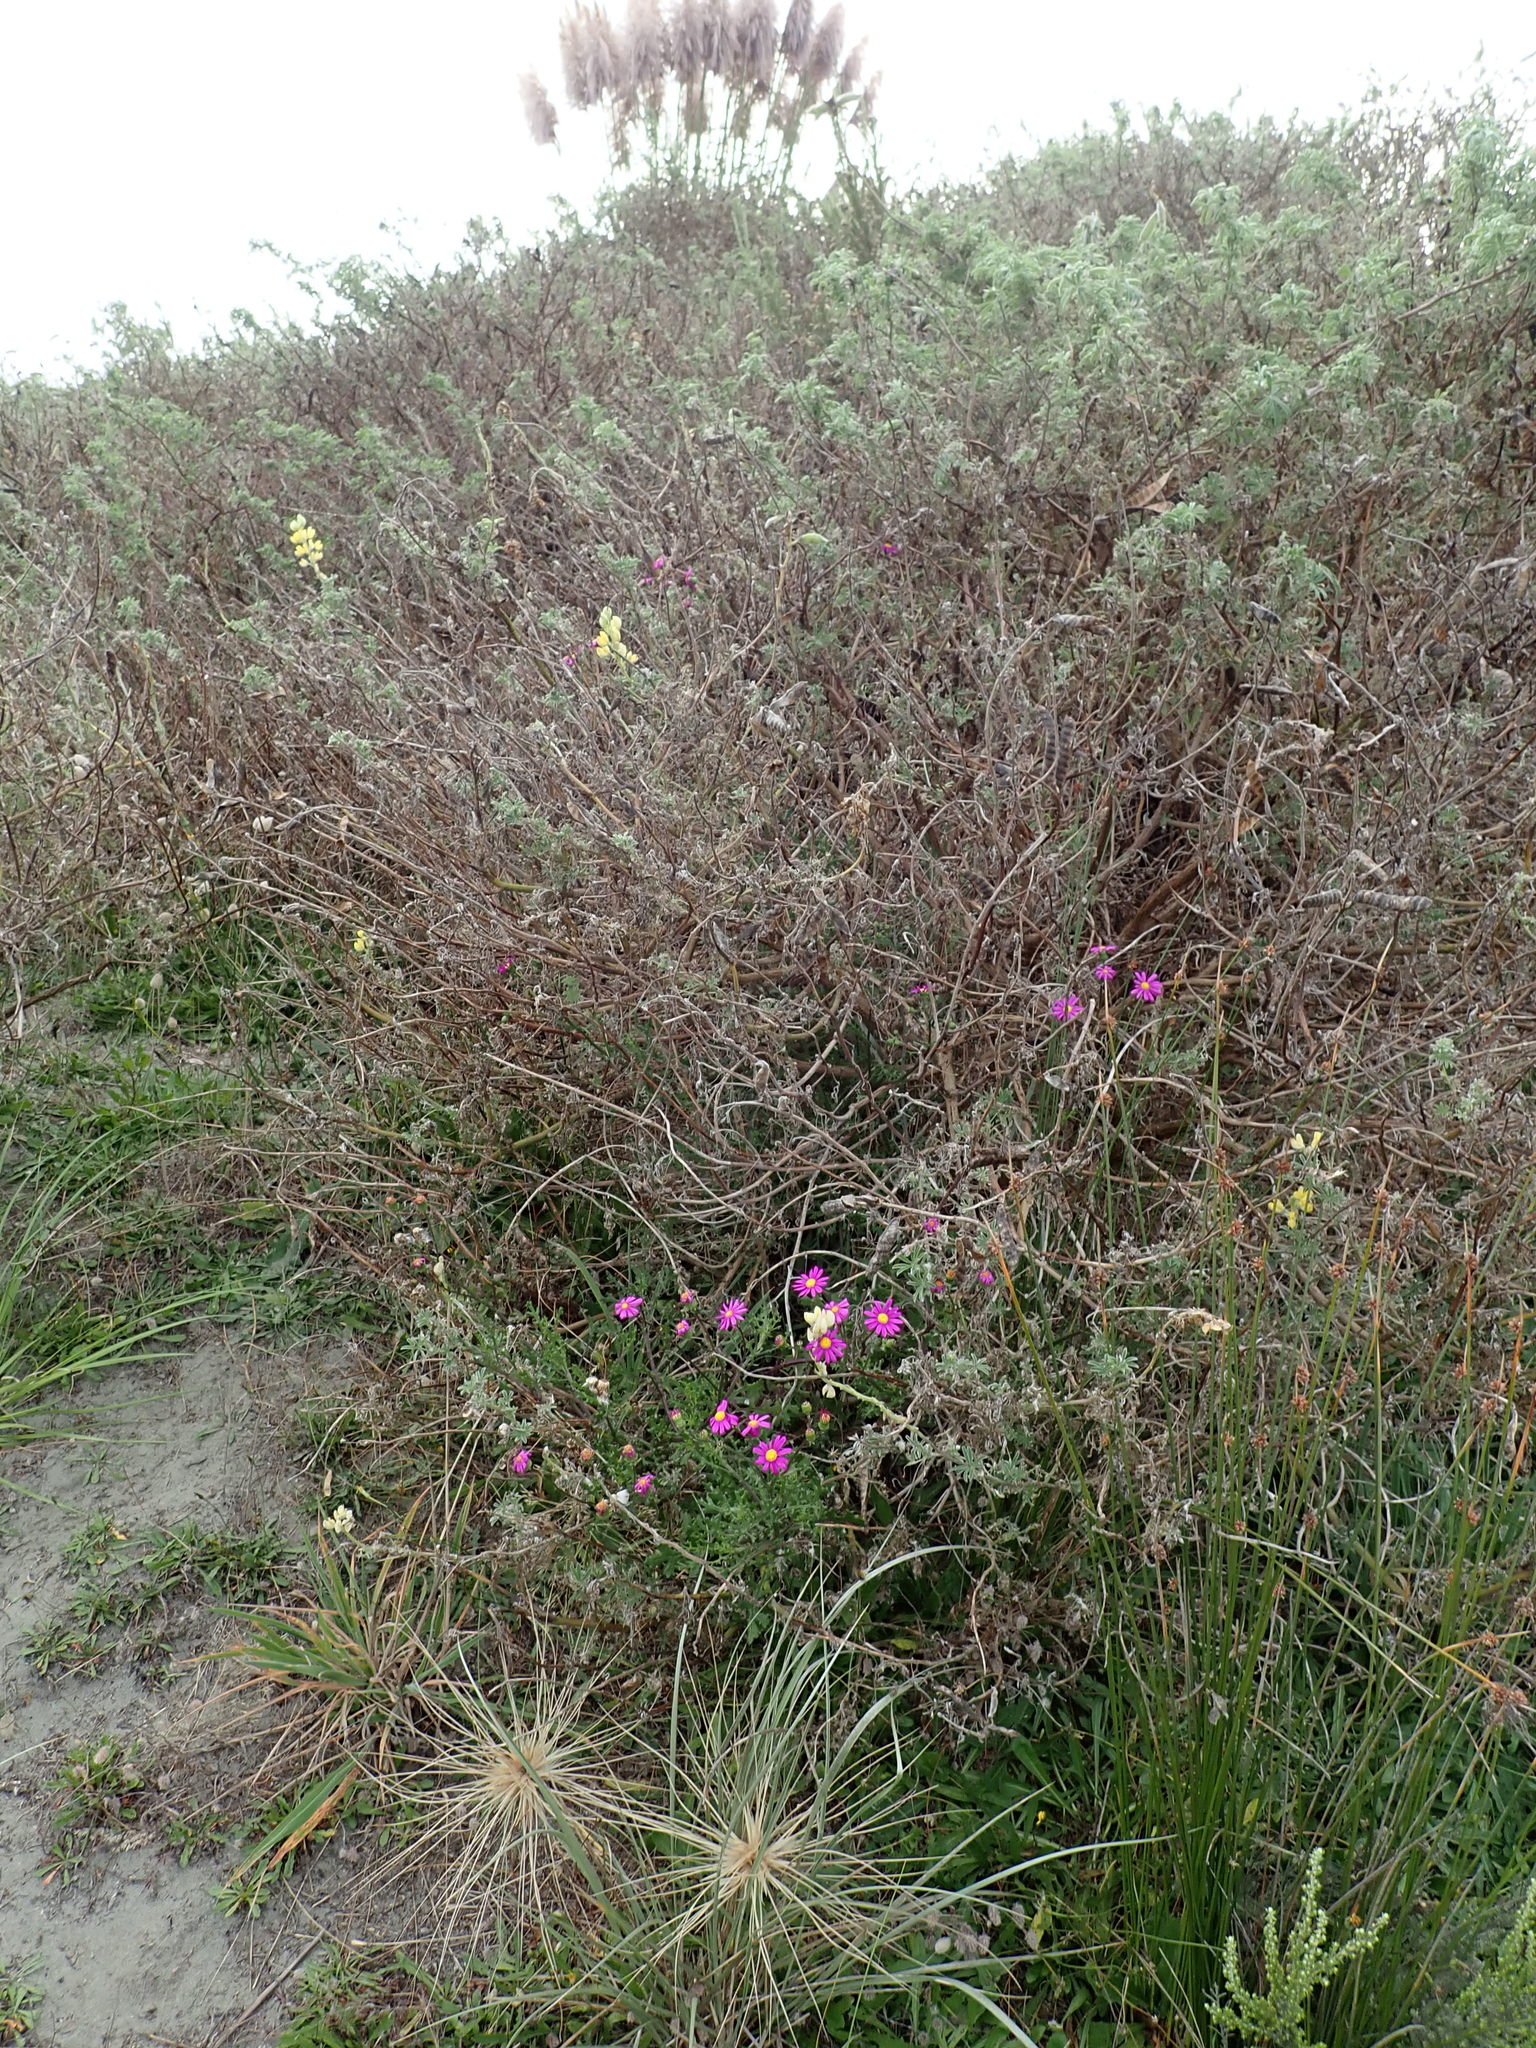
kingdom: Plantae
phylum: Tracheophyta
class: Magnoliopsida
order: Asterales
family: Asteraceae
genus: Senecio
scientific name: Senecio elegans
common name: Purple groundsel
